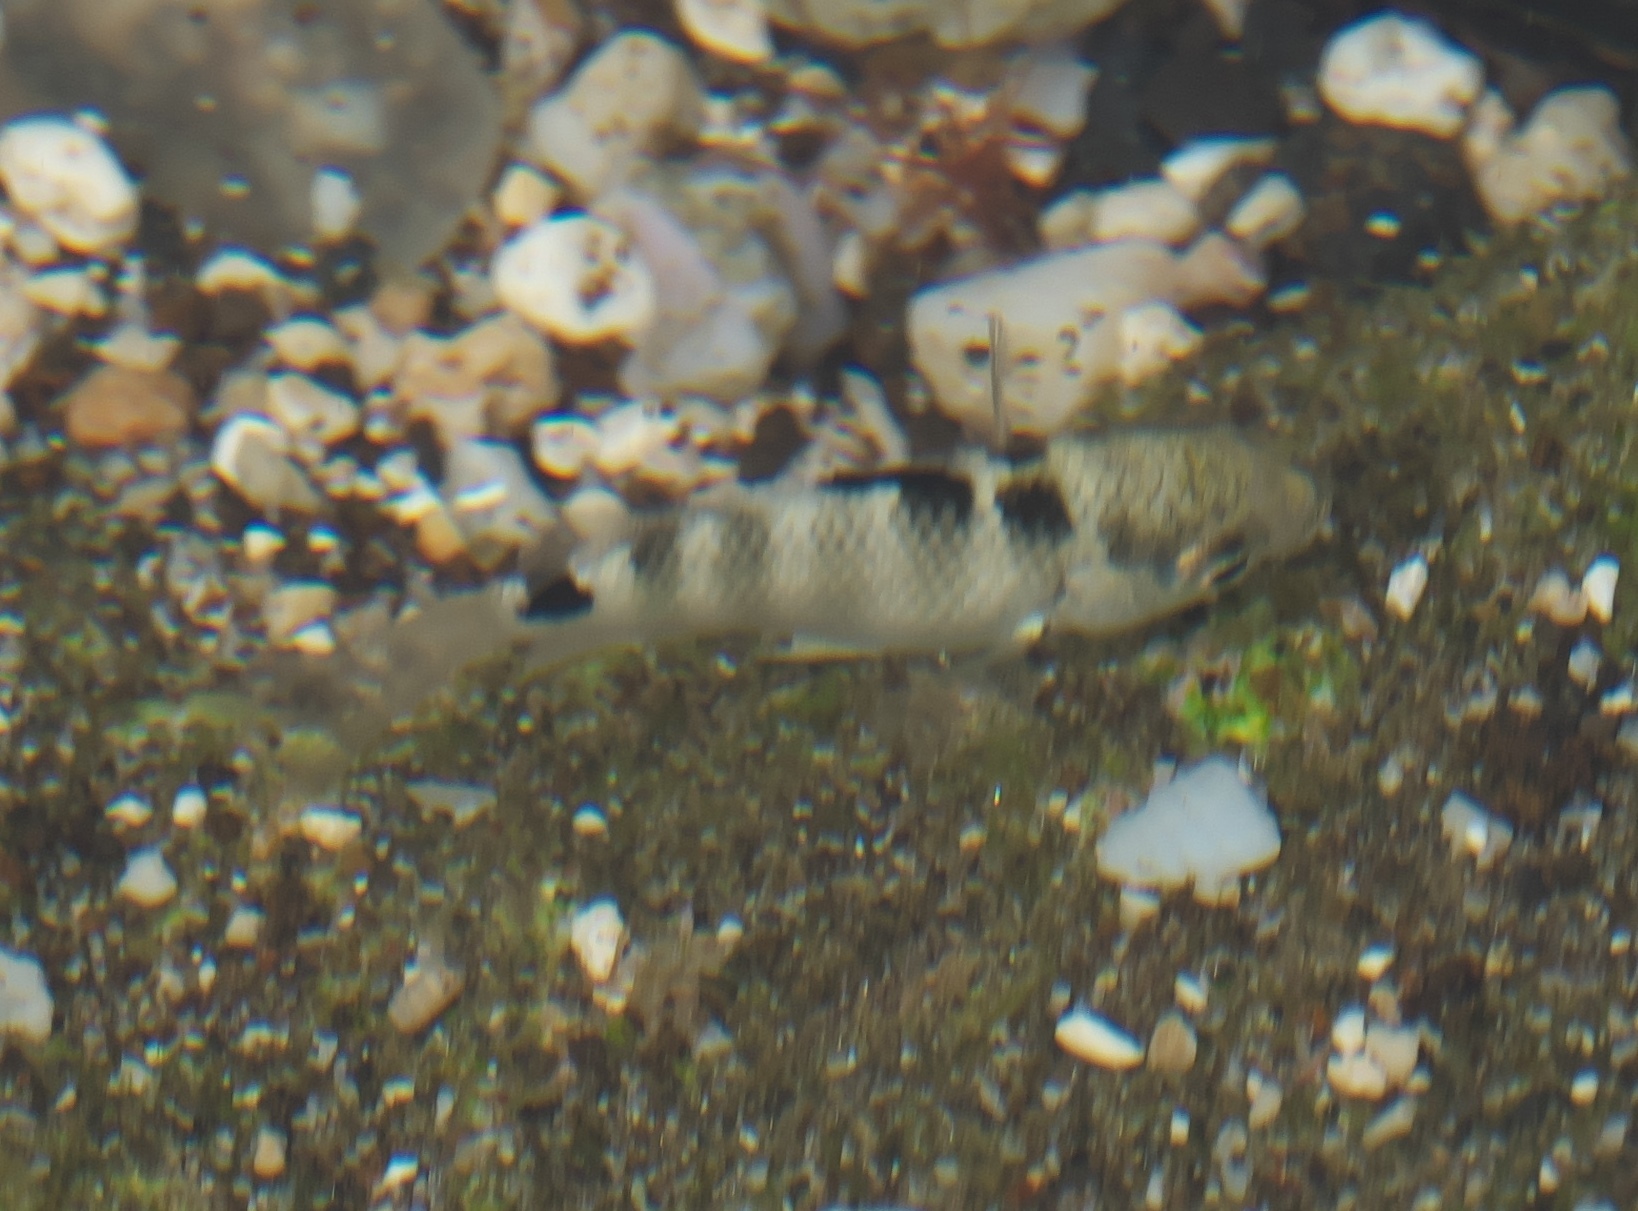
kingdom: Animalia
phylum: Chordata
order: Perciformes
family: Pomacentridae
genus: Abudefduf
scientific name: Abudefduf septemfasciatus
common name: Banded sergeant
